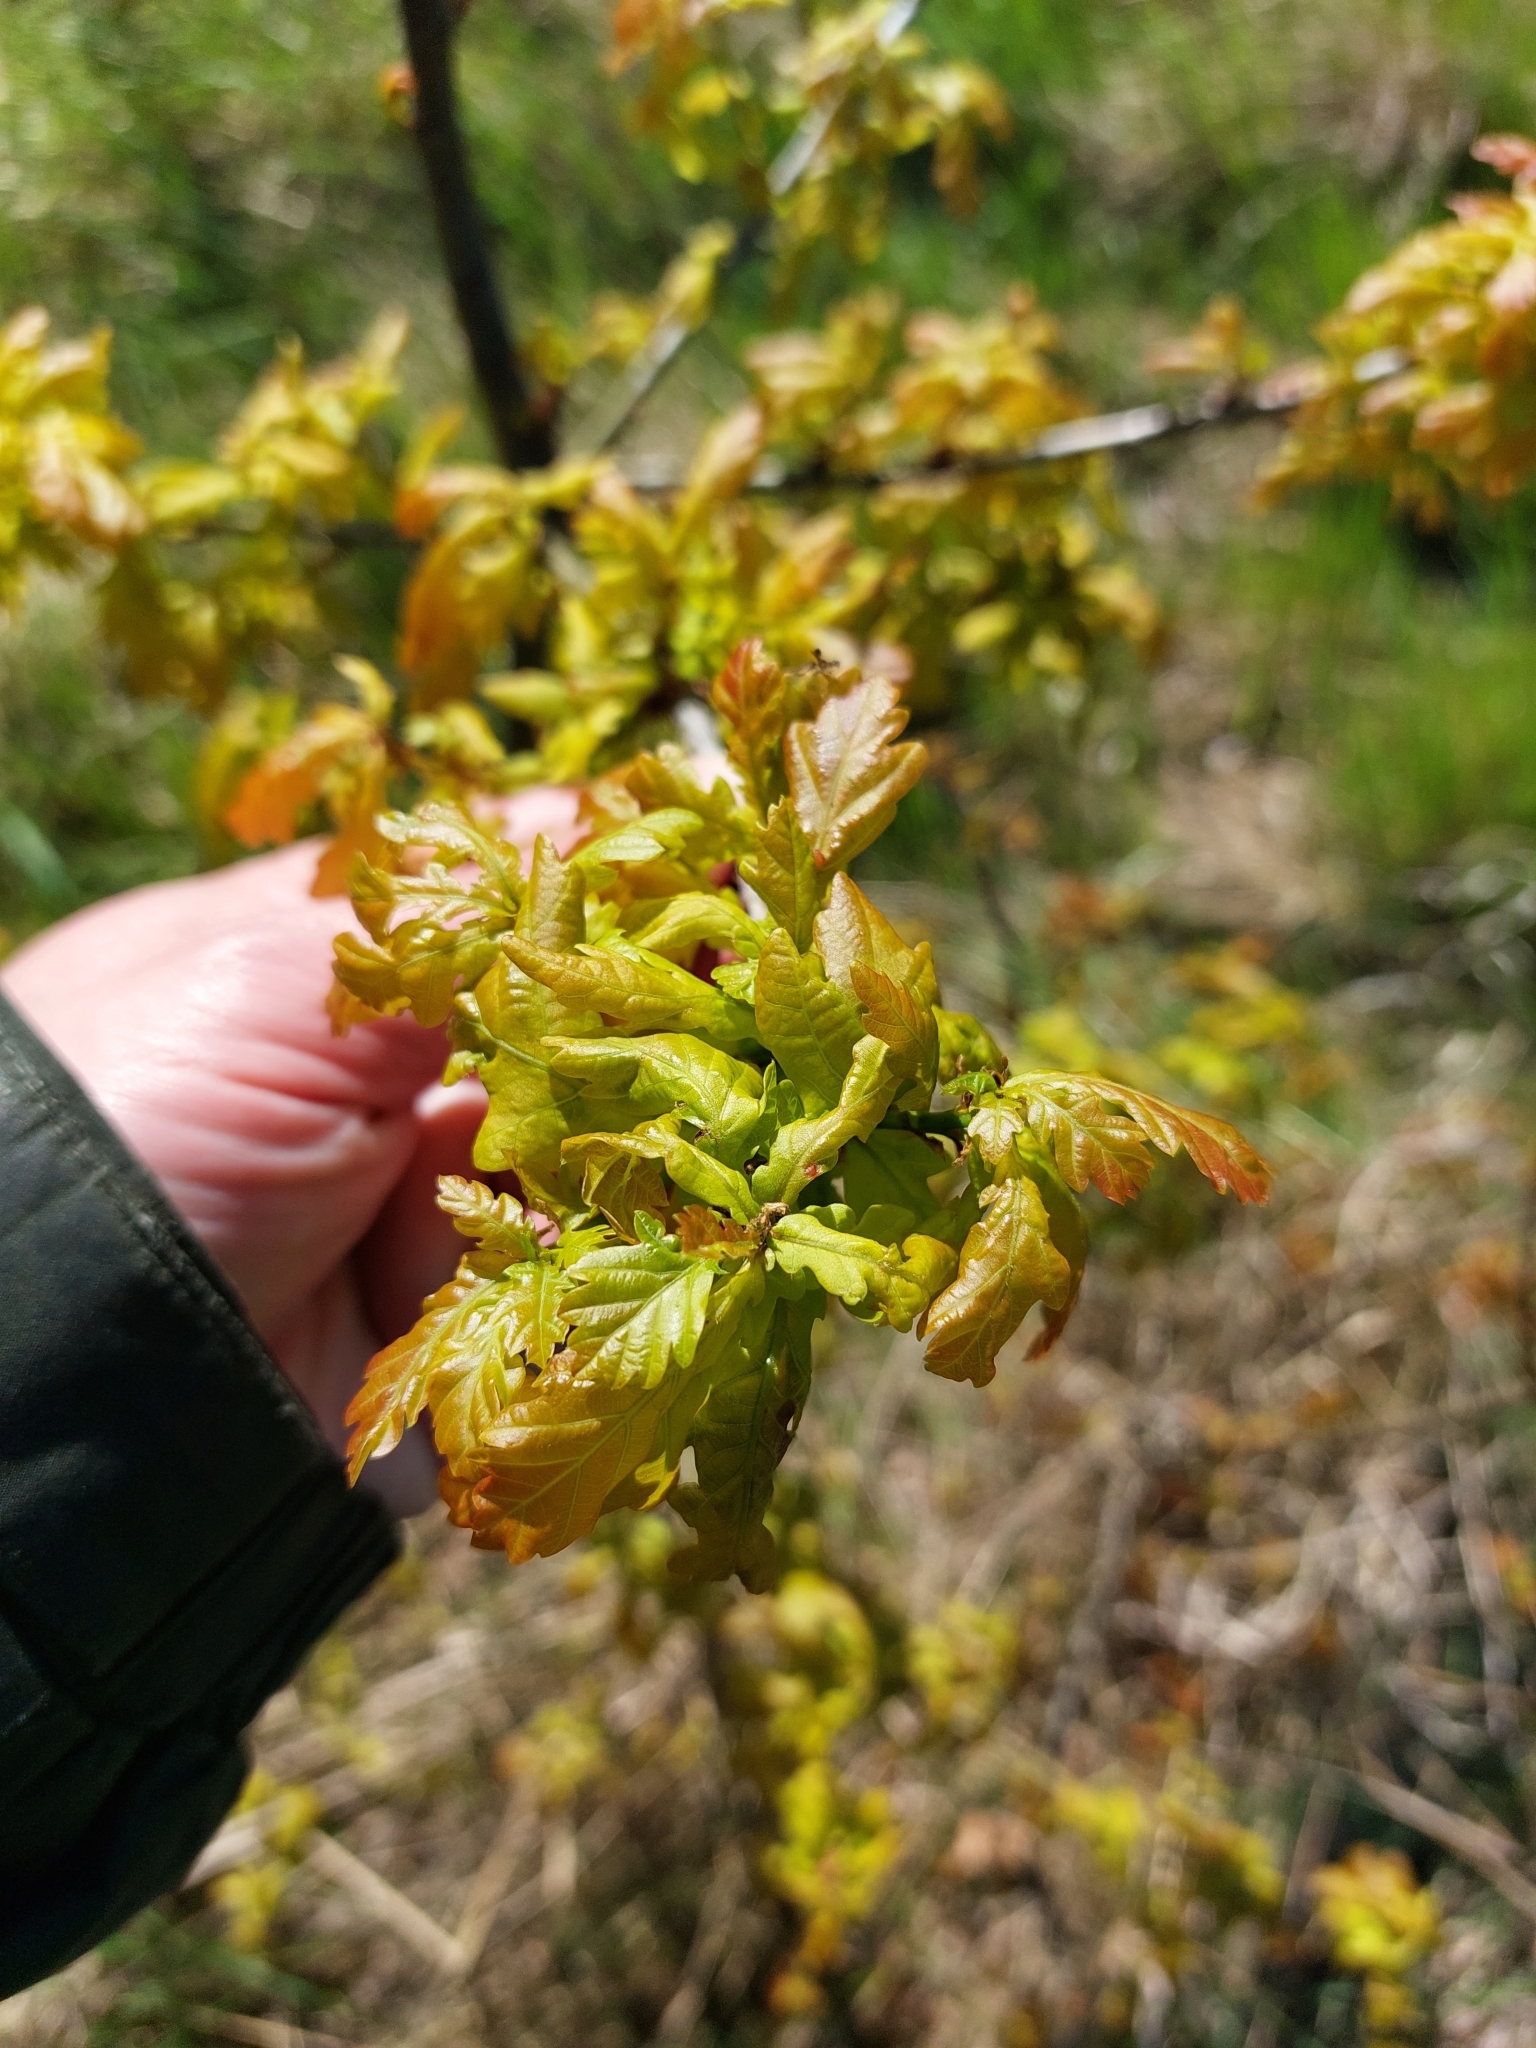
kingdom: Plantae
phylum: Tracheophyta
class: Magnoliopsida
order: Fagales
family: Fagaceae
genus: Quercus
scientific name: Quercus robur
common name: Pedunculate oak
